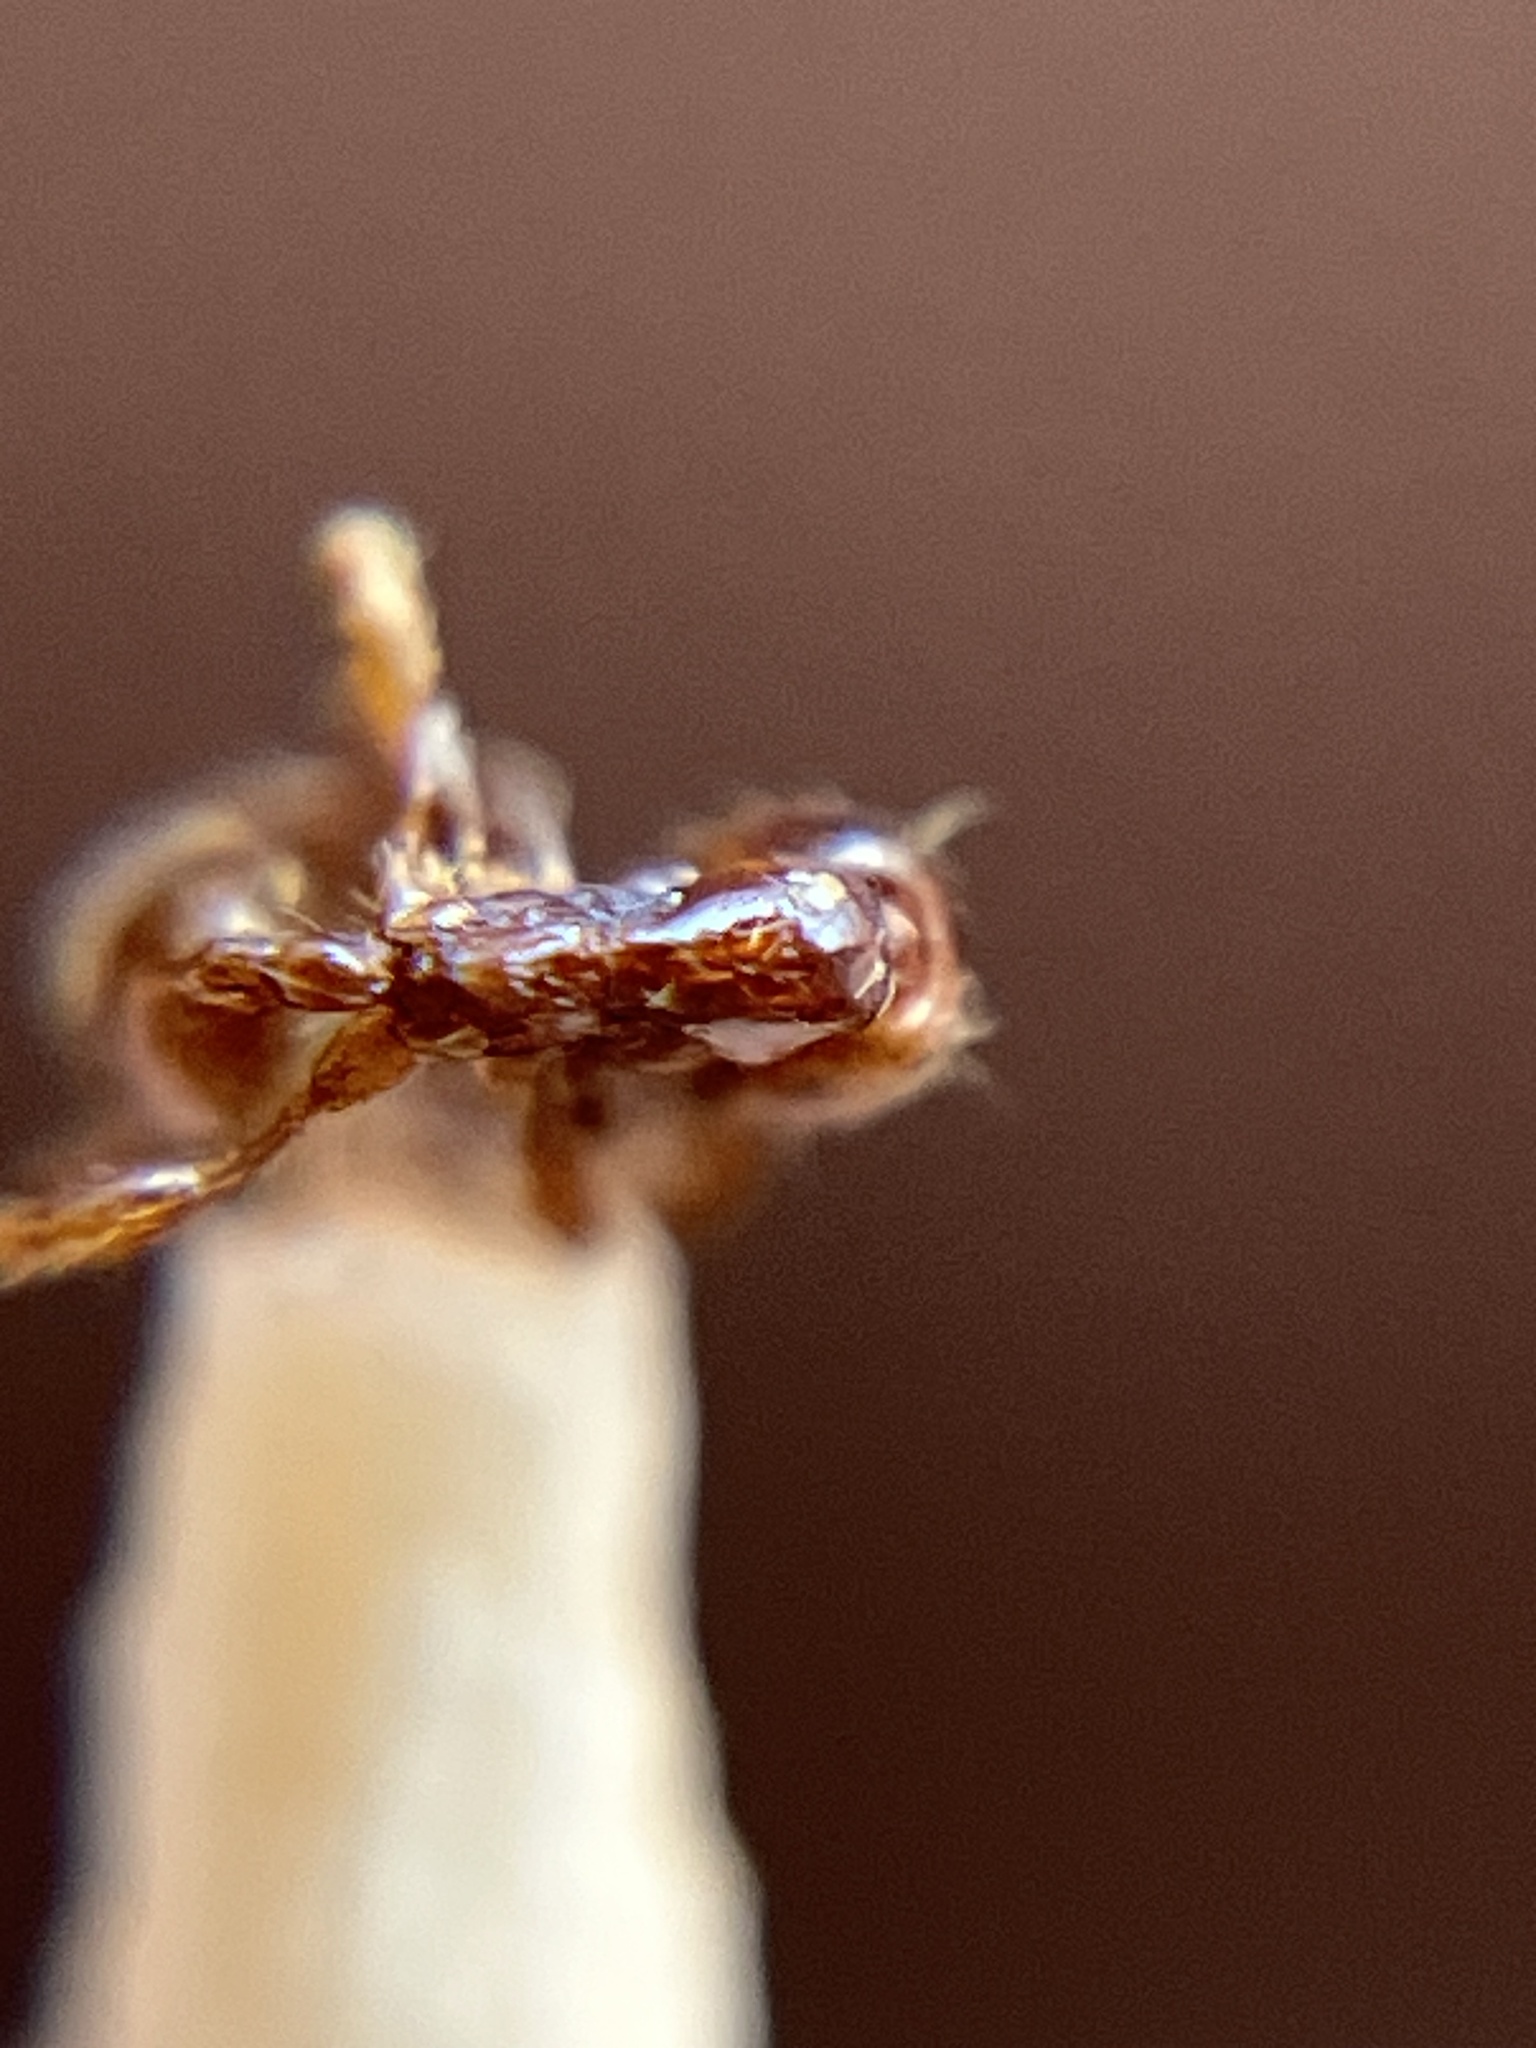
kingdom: Animalia
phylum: Arthropoda
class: Insecta
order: Hymenoptera
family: Formicidae
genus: Aenictus
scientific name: Aenictus peguensis
